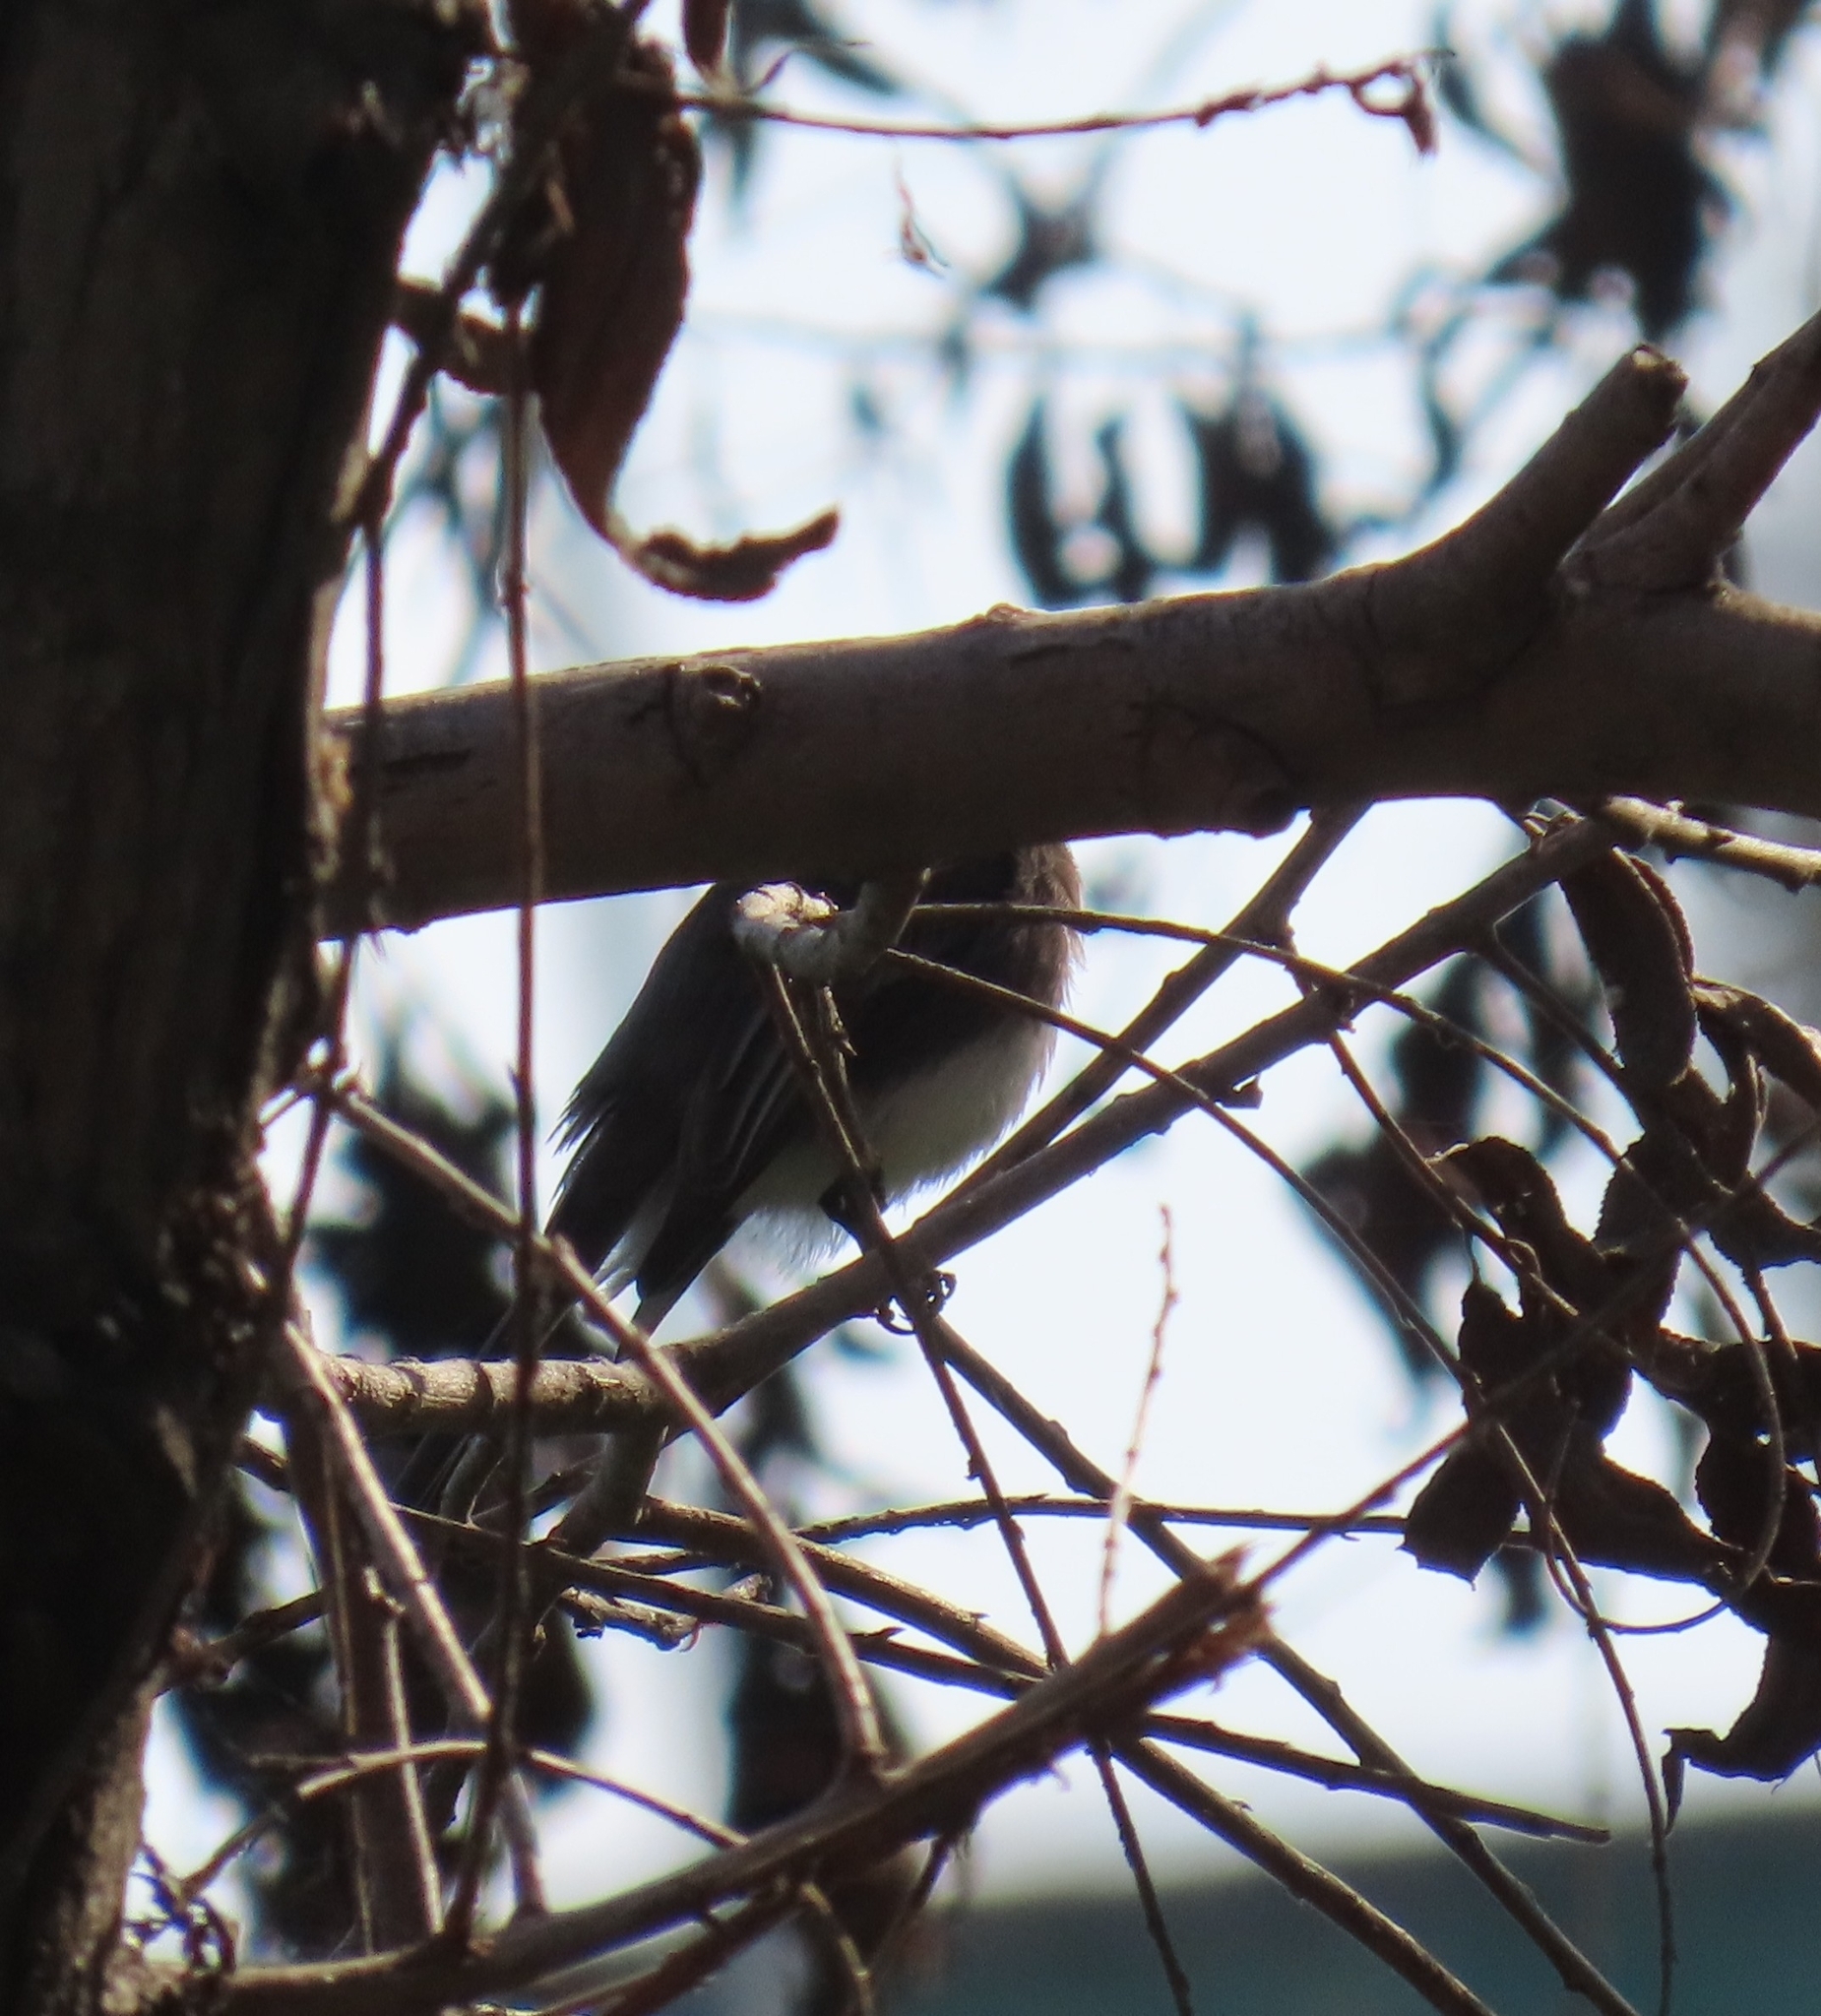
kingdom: Animalia
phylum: Chordata
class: Aves
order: Passeriformes
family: Tyrannidae
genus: Sayornis
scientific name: Sayornis nigricans
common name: Black phoebe
